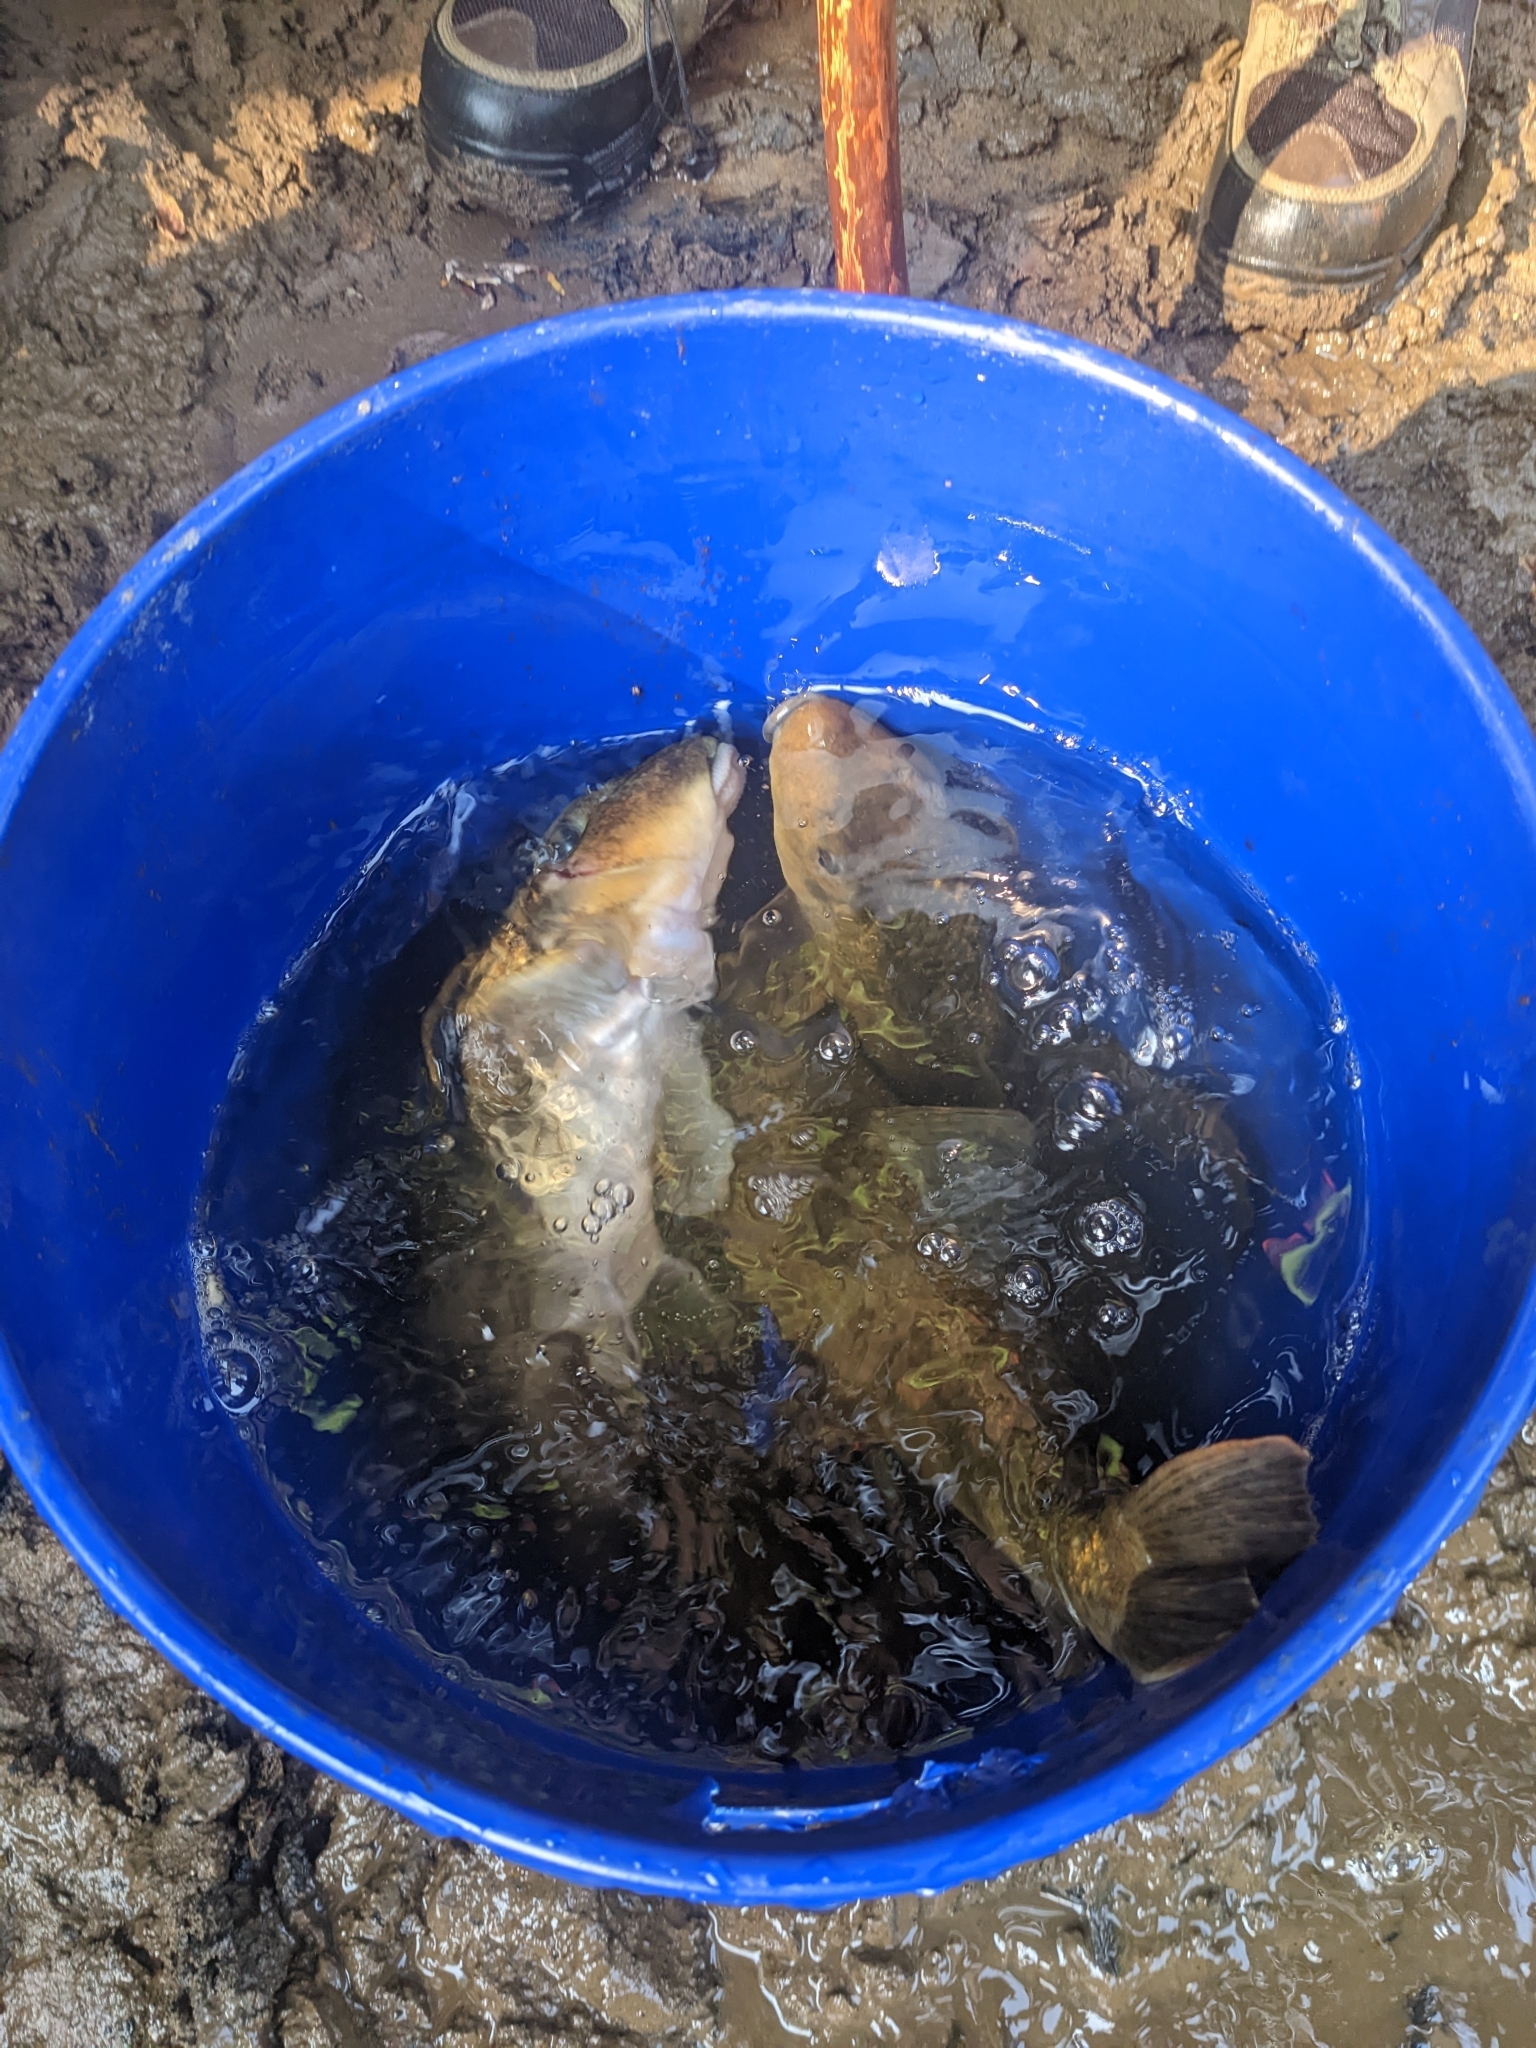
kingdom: Animalia
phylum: Chordata
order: Cypriniformes
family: Catostomidae
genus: Hypentelium
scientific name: Hypentelium nigricans
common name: Northern hog sucker
